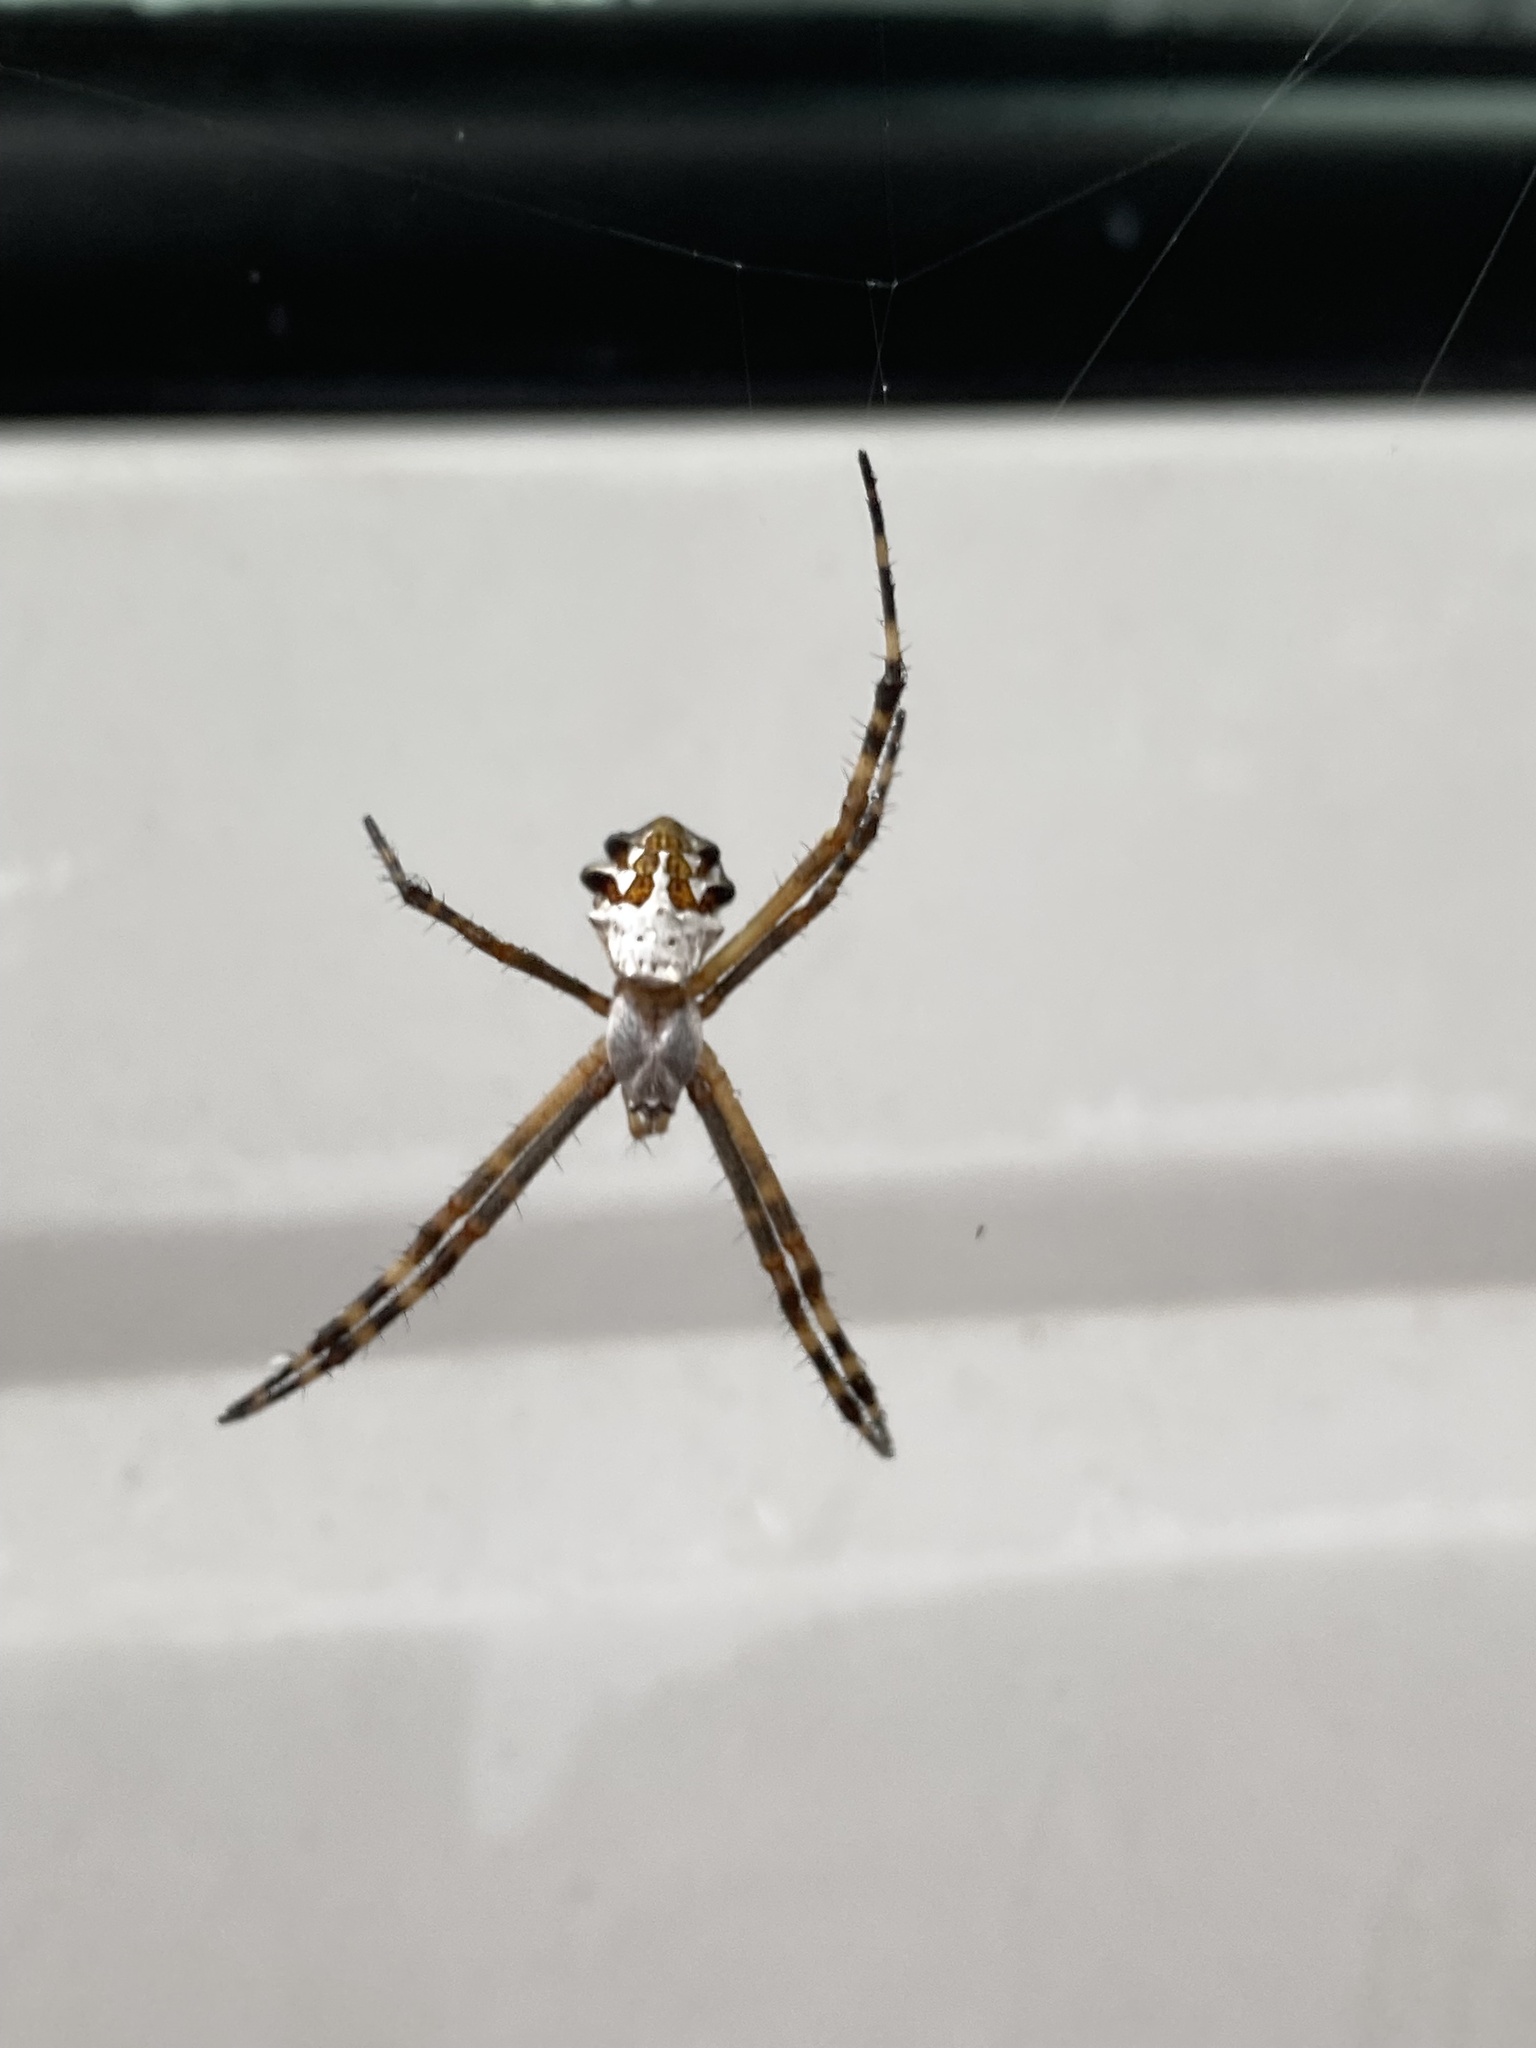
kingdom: Animalia
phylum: Arthropoda
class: Arachnida
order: Araneae
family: Araneidae
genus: Argiope
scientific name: Argiope argentata
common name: Orb weavers
